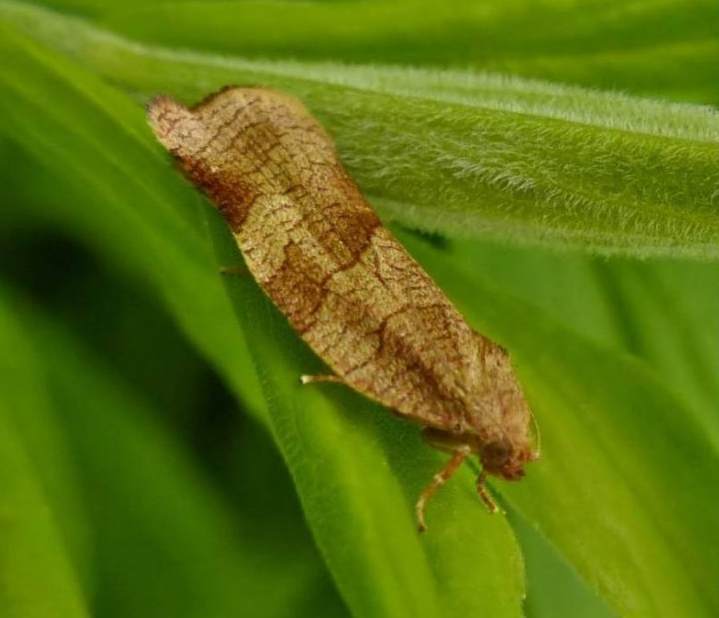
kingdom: Animalia
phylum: Arthropoda
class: Insecta
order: Lepidoptera
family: Tortricidae
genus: Choristoneura
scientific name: Choristoneura rosaceana
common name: Oblique-banded leafroller moth
